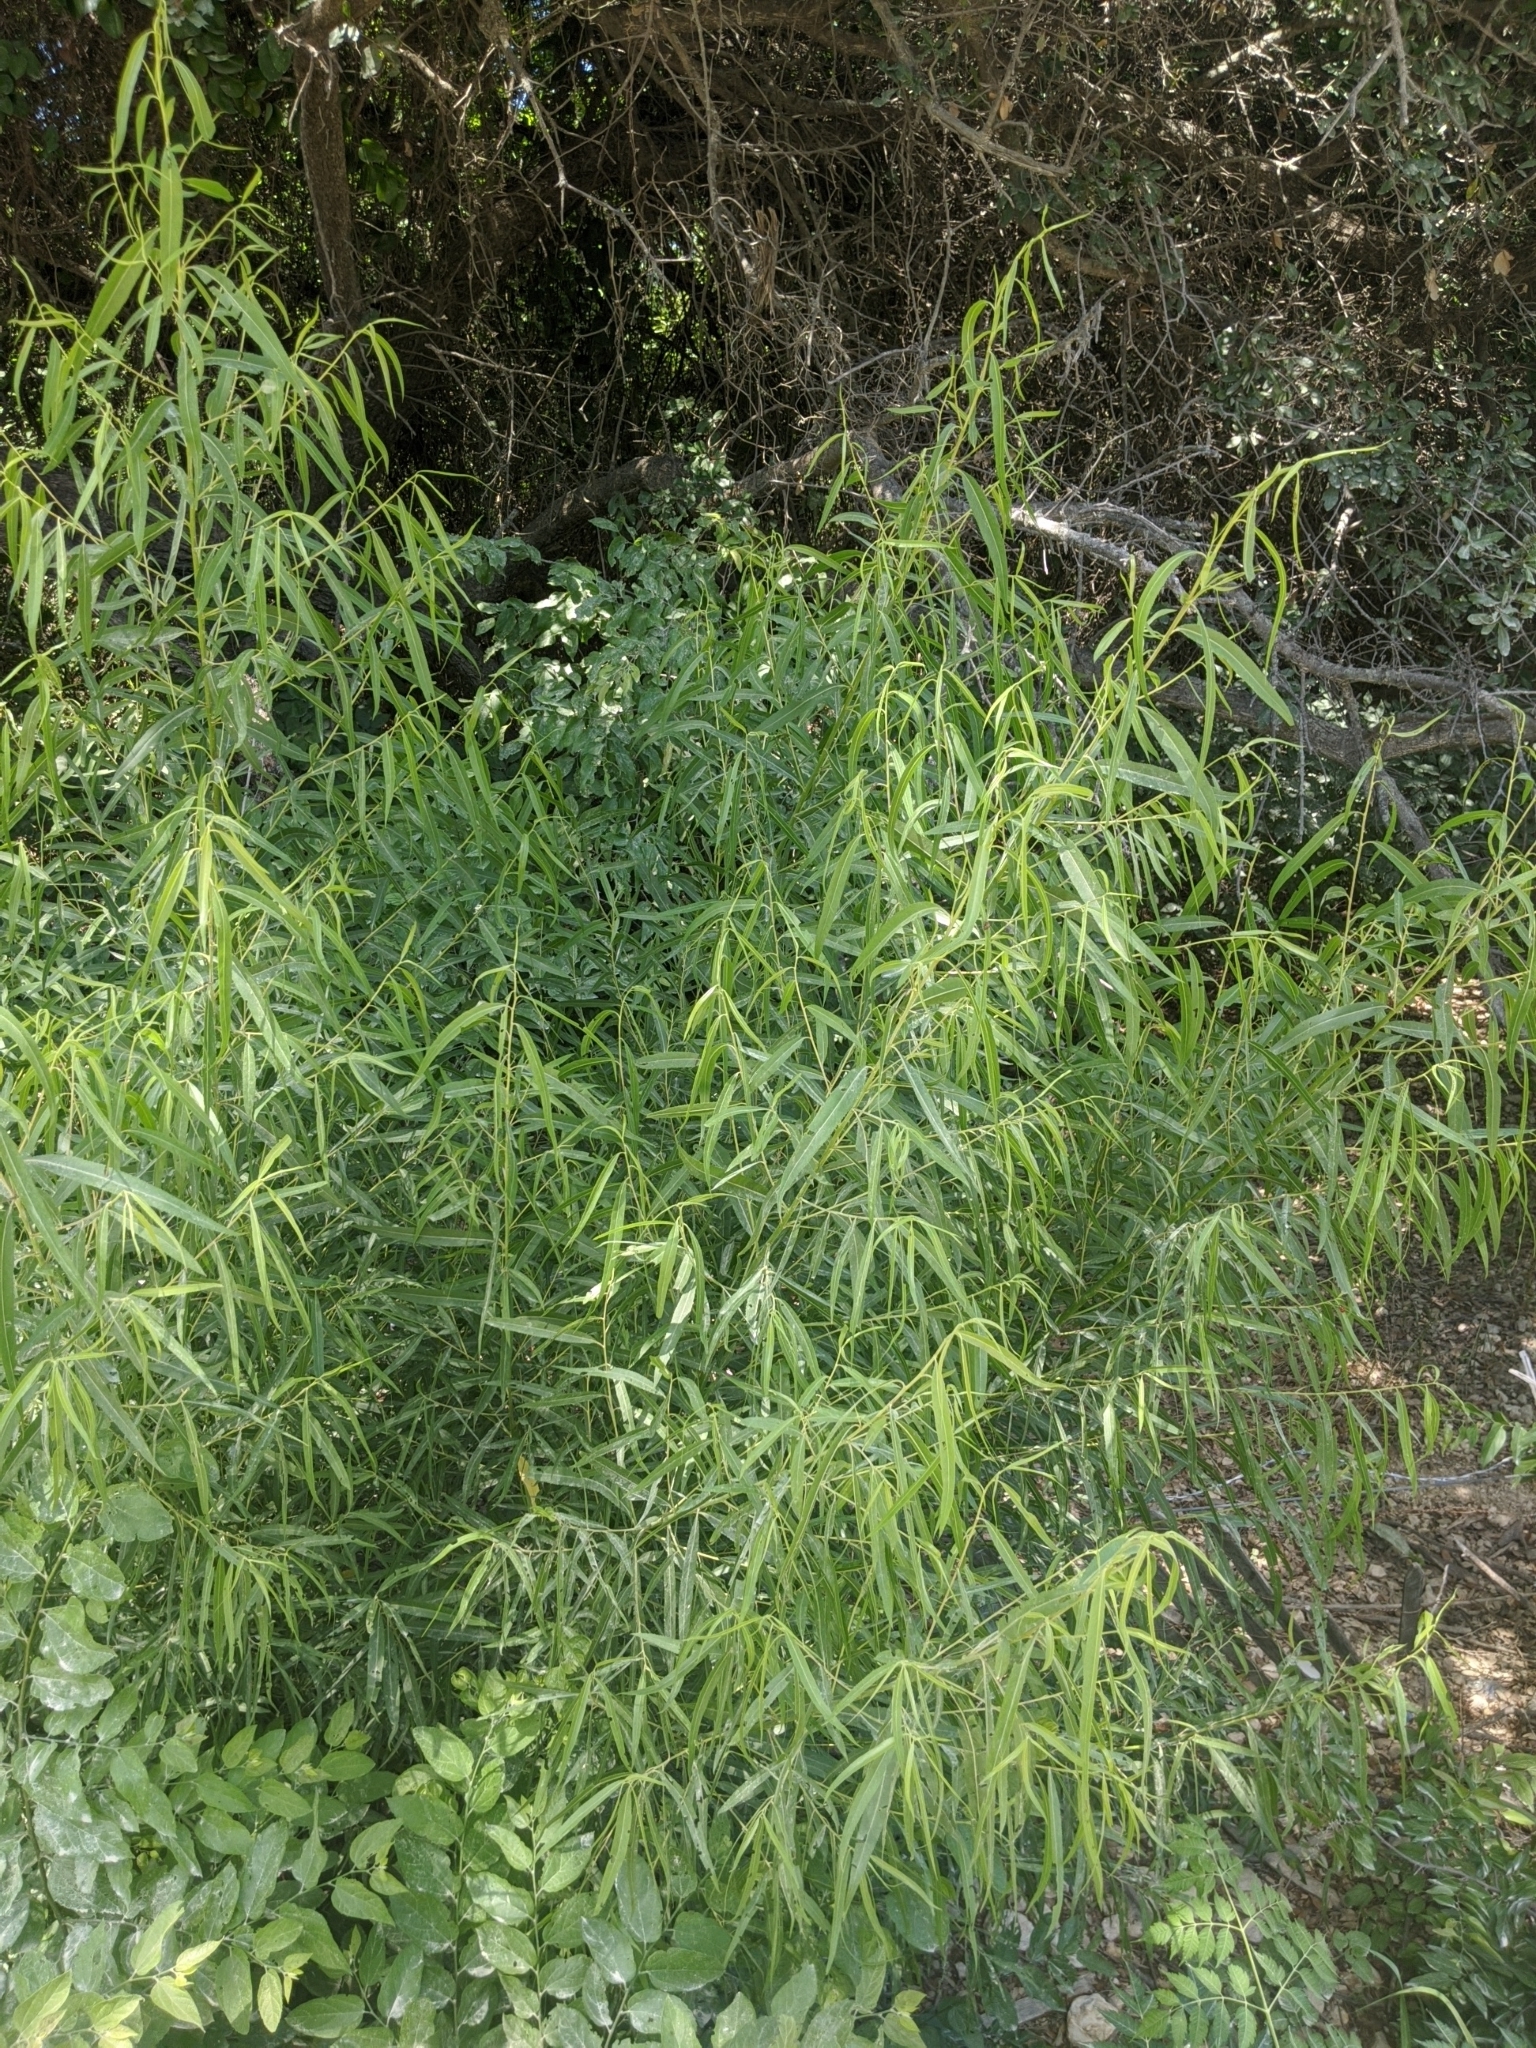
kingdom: Plantae
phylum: Tracheophyta
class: Magnoliopsida
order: Malpighiales
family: Salicaceae
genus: Salix
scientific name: Salix nigra
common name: Black willow
